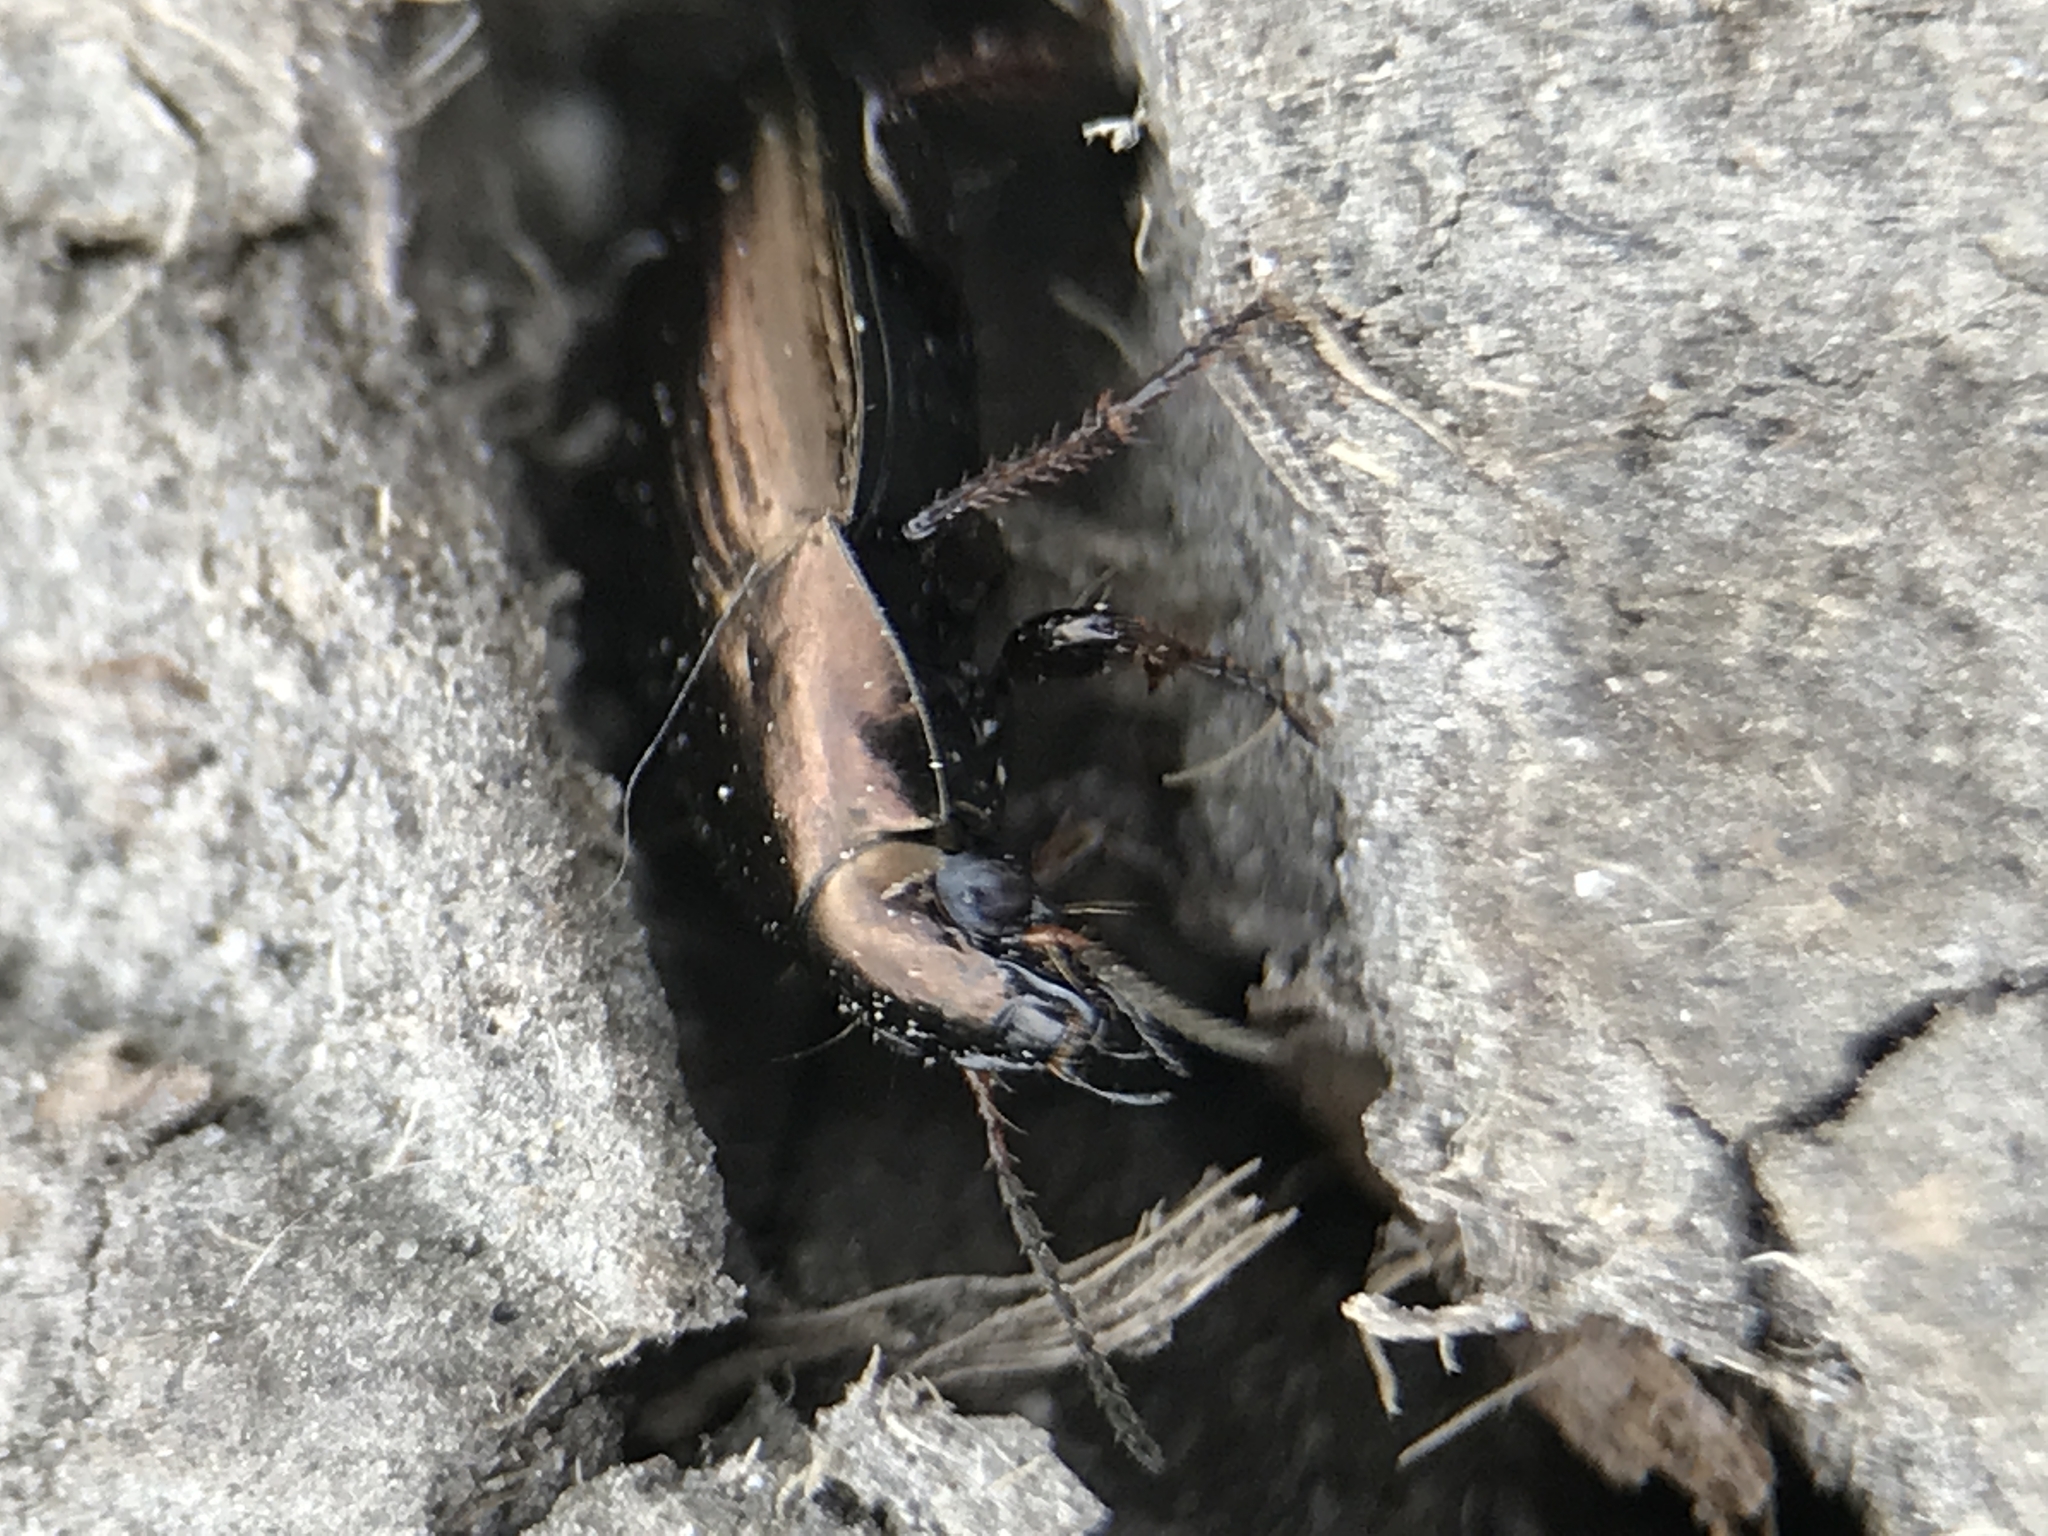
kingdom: Animalia
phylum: Arthropoda
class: Insecta
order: Coleoptera
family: Carabidae
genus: Amara
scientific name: Amara aenea
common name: Common sun beetle
